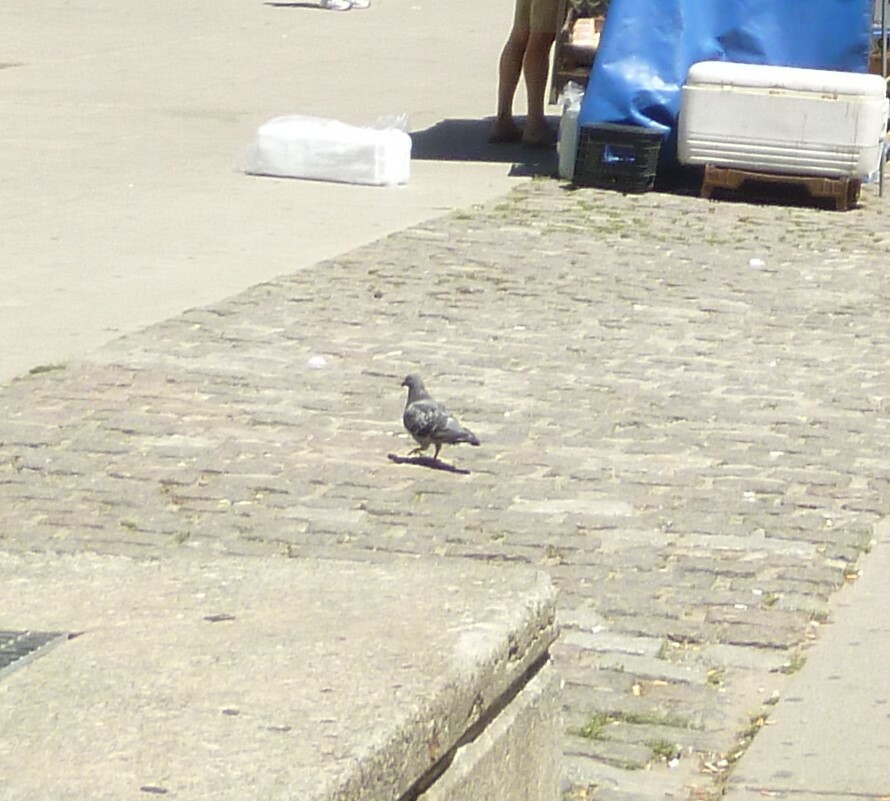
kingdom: Animalia
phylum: Chordata
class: Aves
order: Columbiformes
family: Columbidae
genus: Columba
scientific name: Columba livia
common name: Rock pigeon
